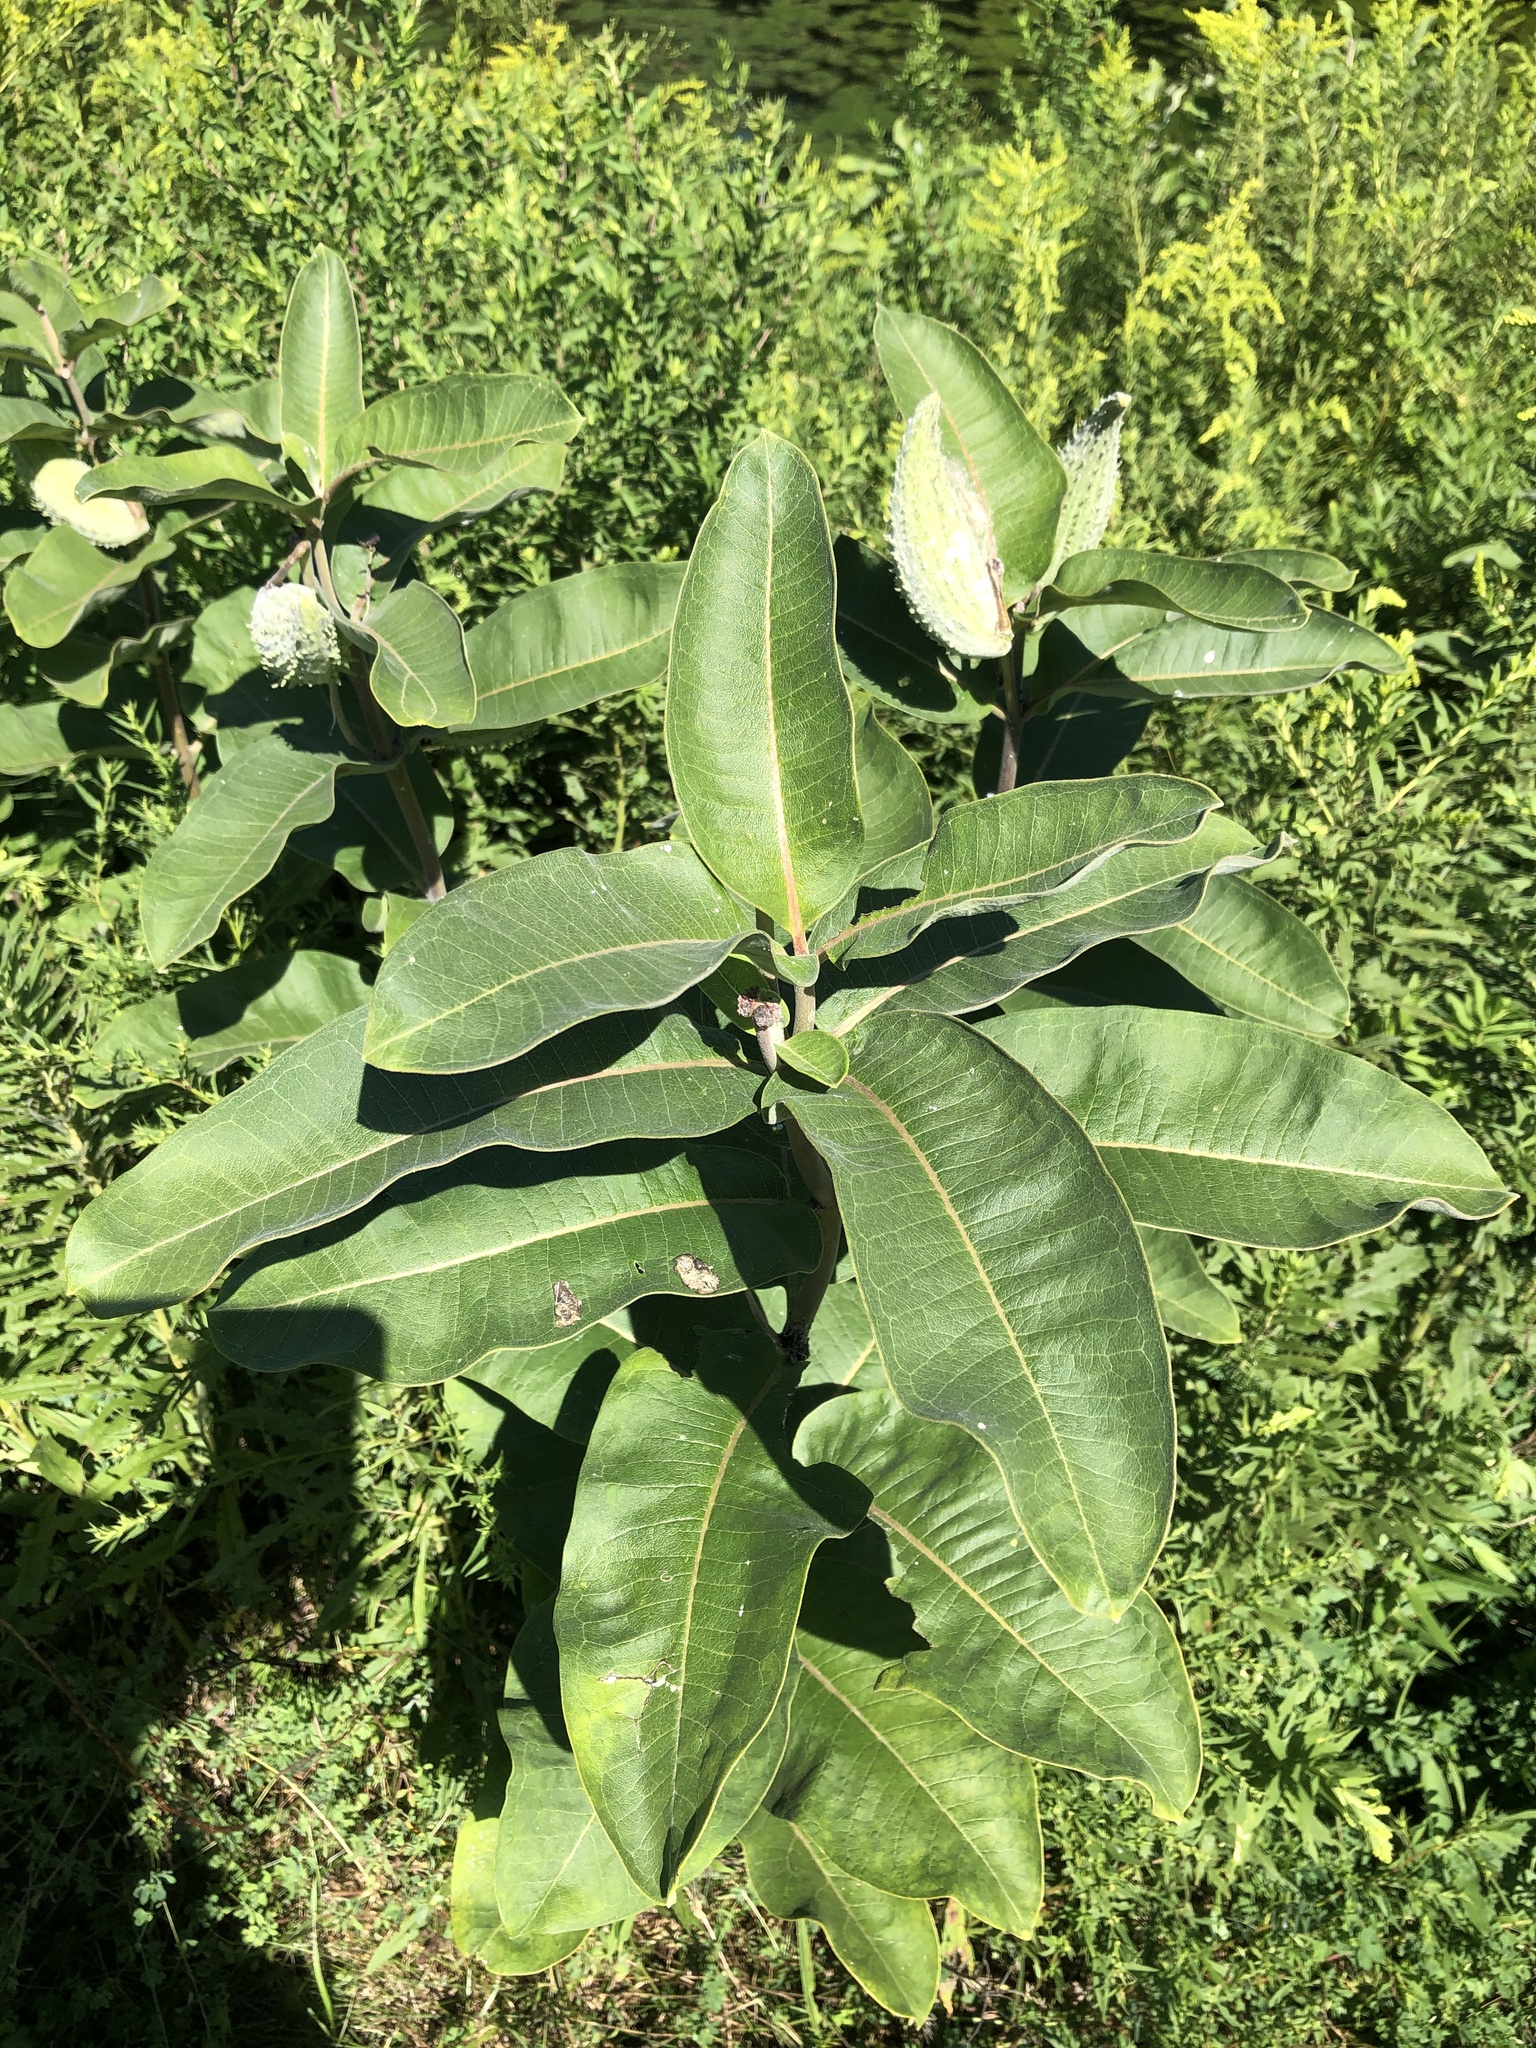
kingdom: Plantae
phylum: Tracheophyta
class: Magnoliopsida
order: Gentianales
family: Apocynaceae
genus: Asclepias
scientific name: Asclepias syriaca
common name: Common milkweed
